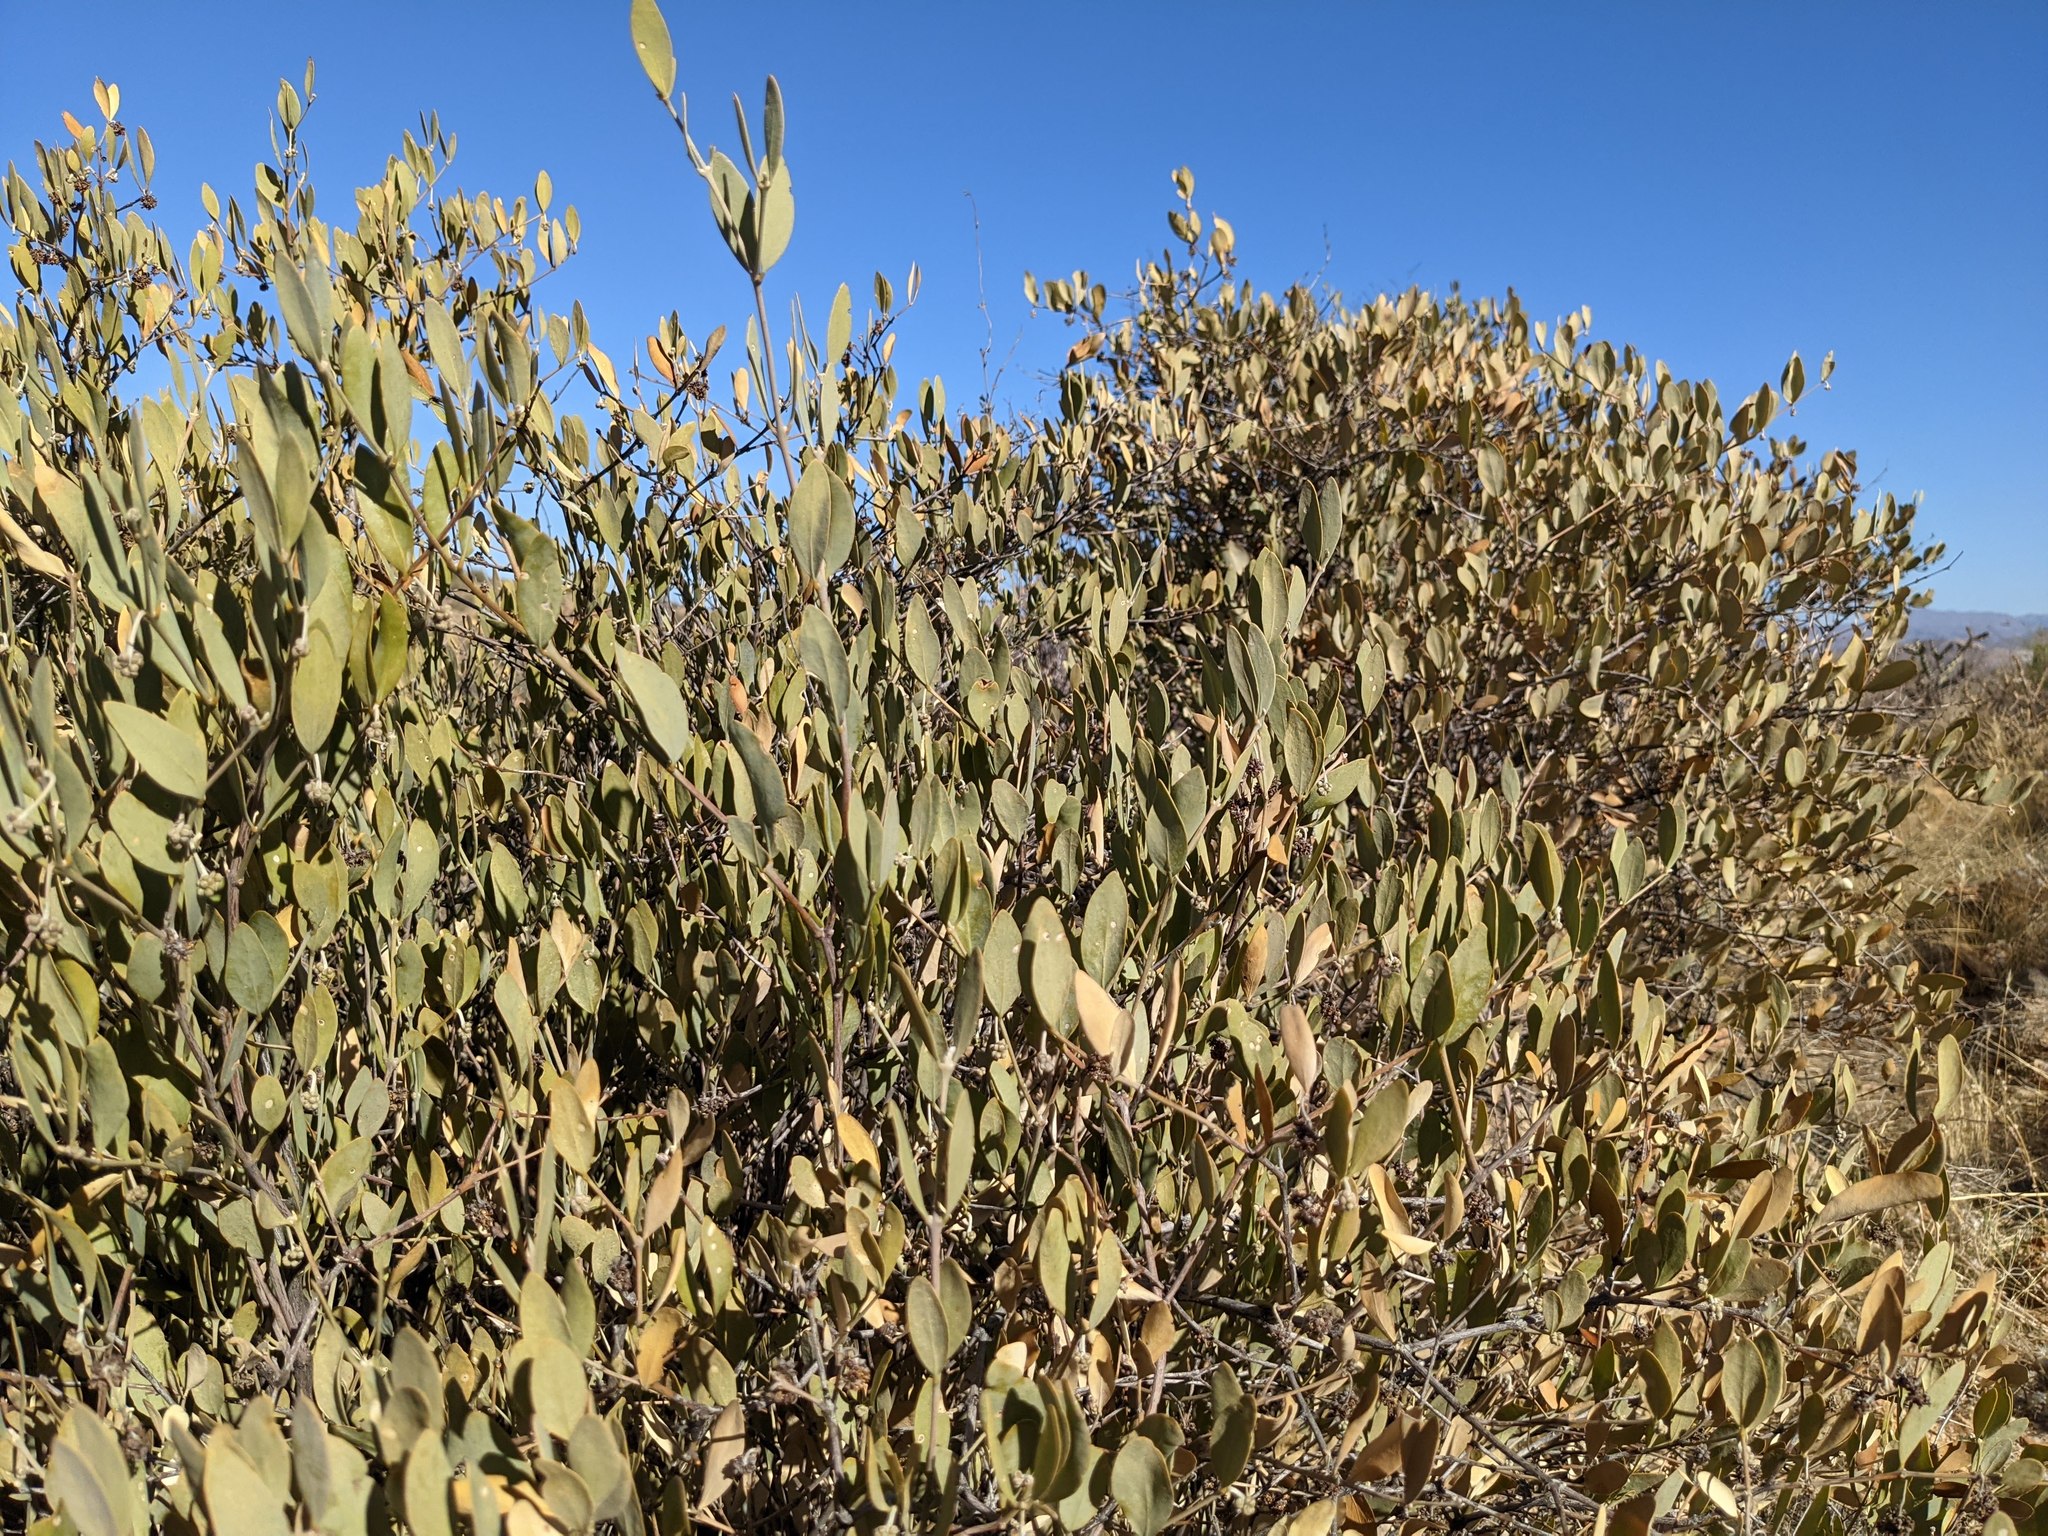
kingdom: Plantae
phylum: Tracheophyta
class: Magnoliopsida
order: Caryophyllales
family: Simmondsiaceae
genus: Simmondsia
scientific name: Simmondsia chinensis
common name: Jojoba
